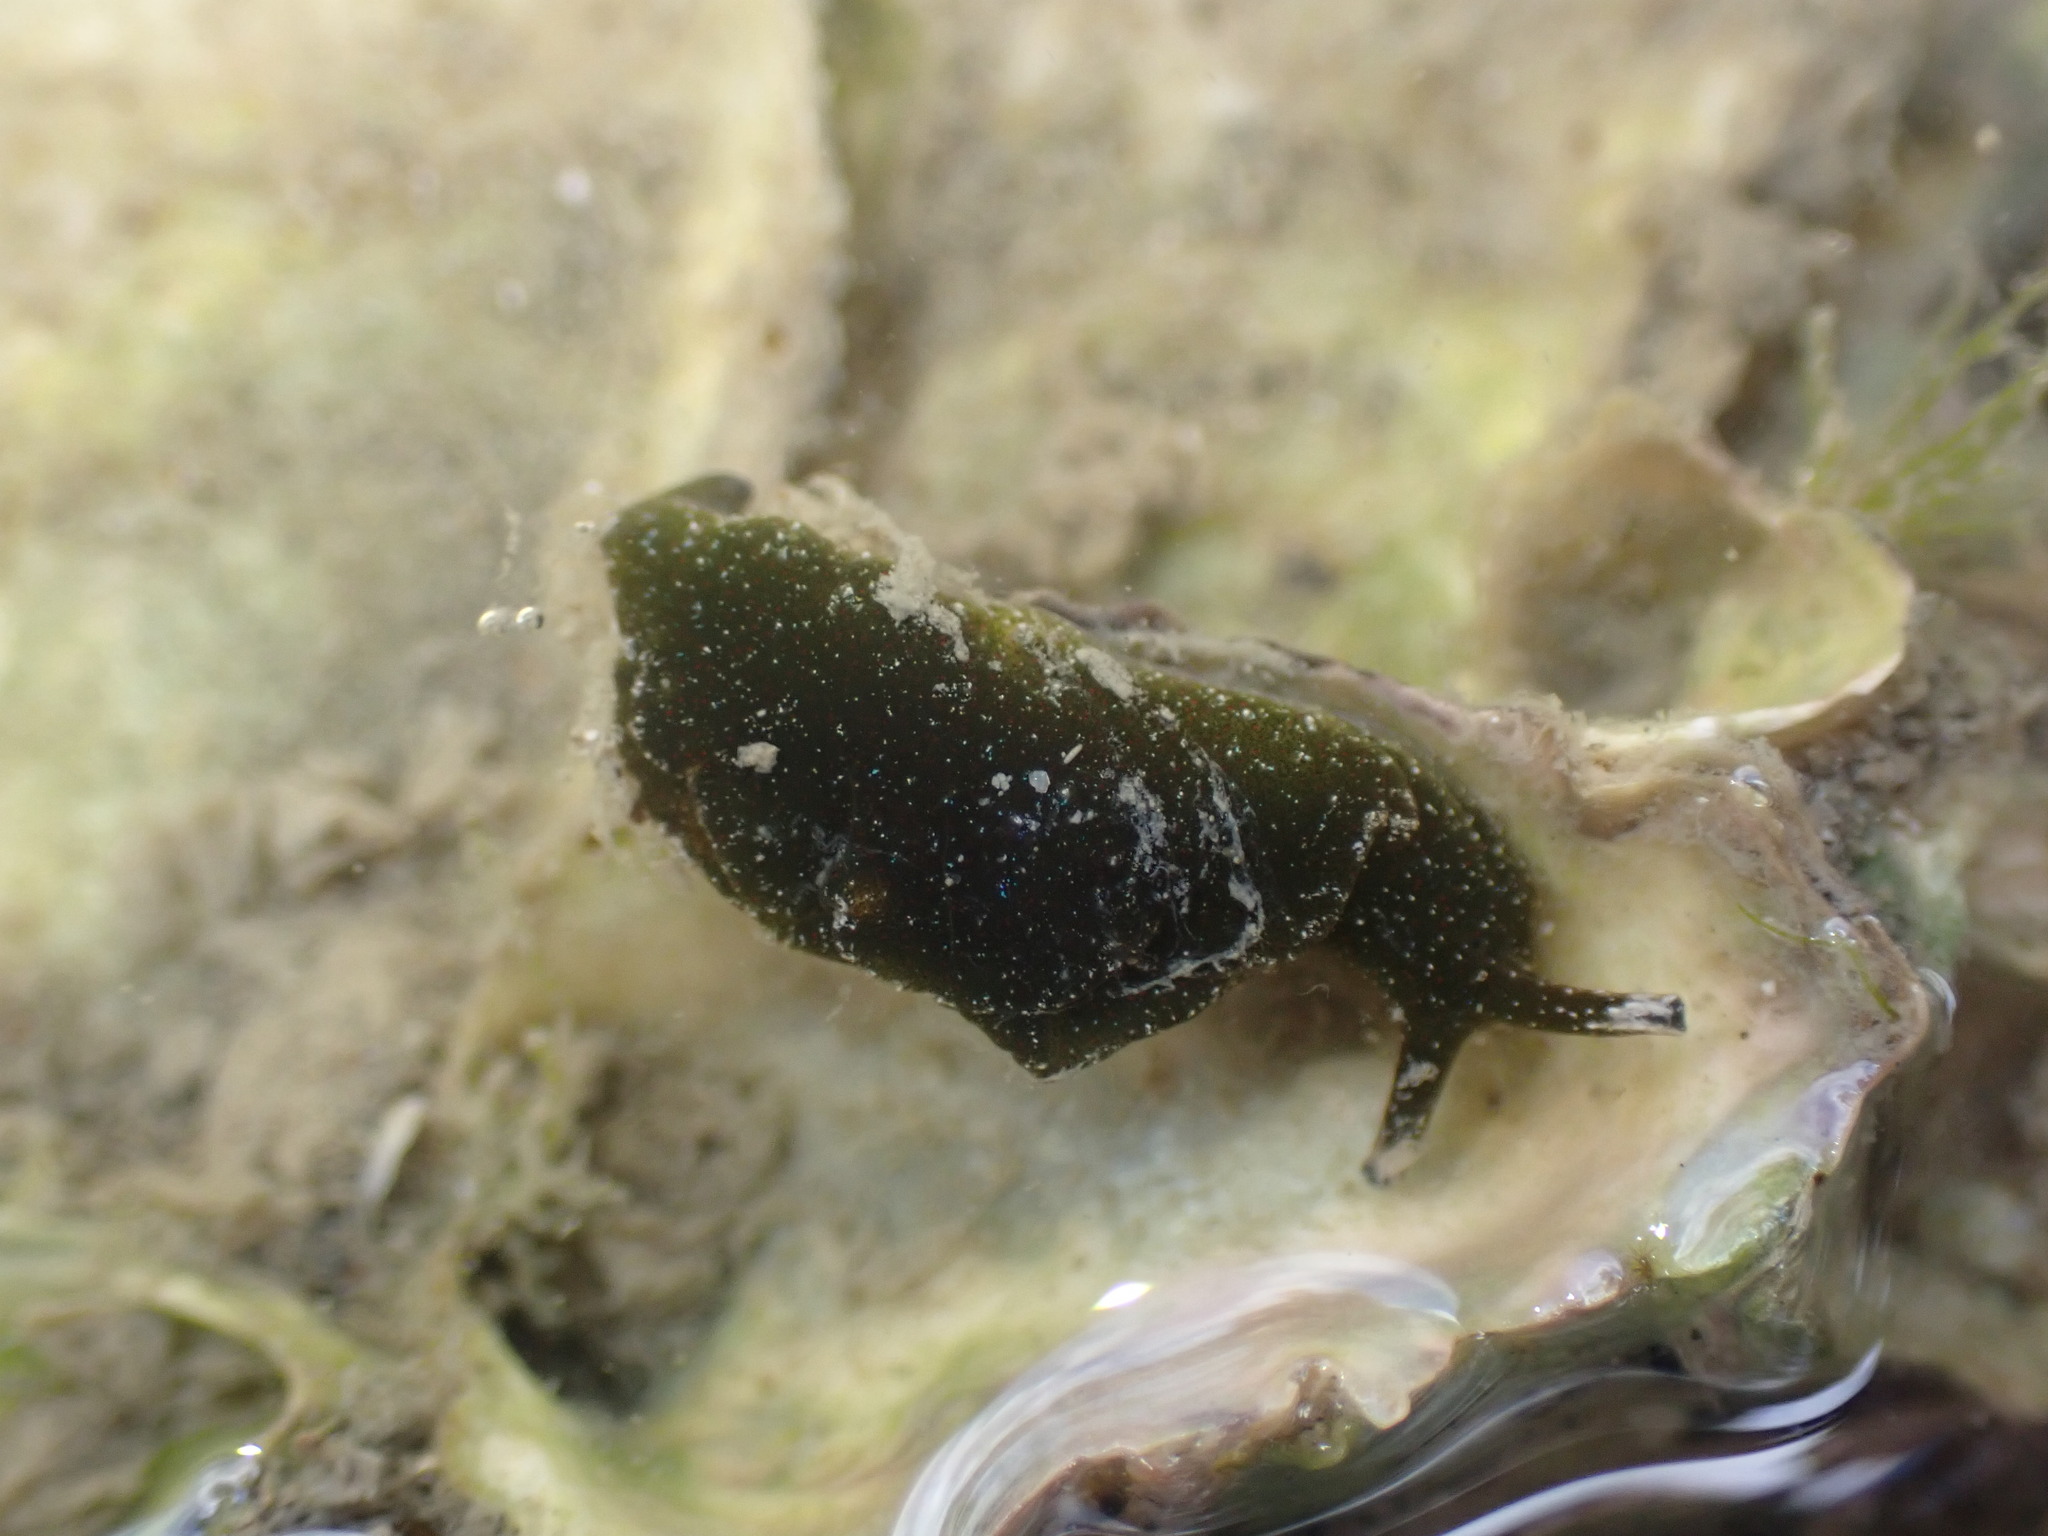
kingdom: Animalia
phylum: Mollusca
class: Gastropoda
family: Plakobranchidae
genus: Elysia
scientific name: Elysia maoria
